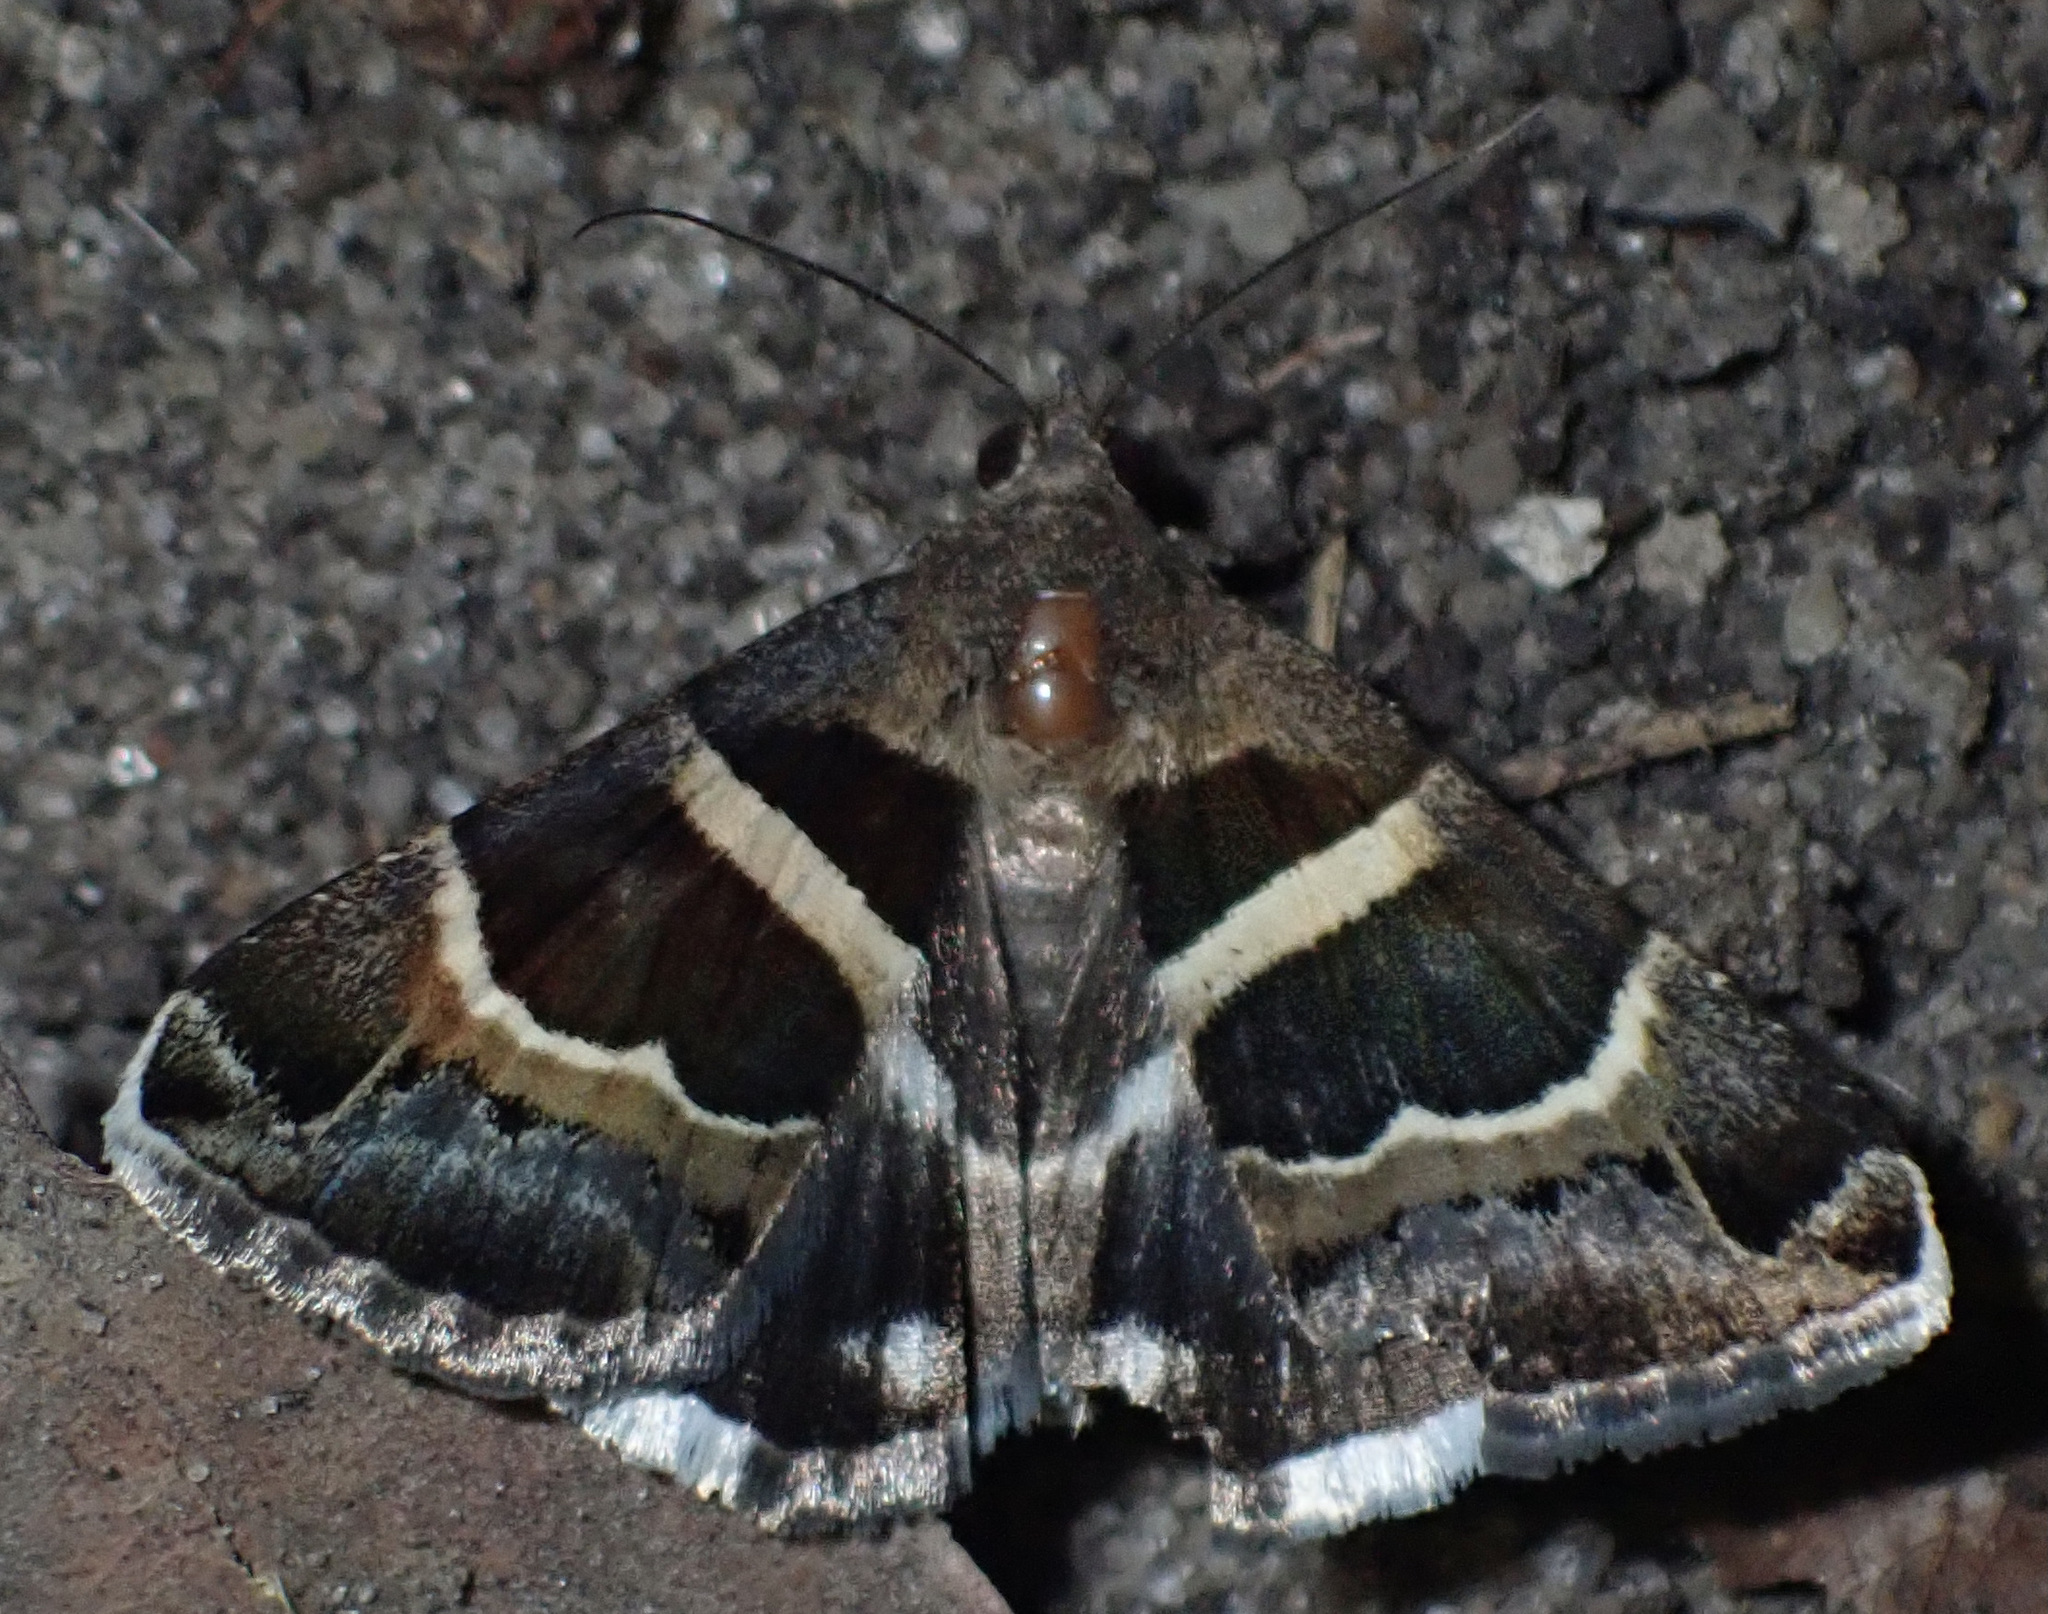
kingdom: Animalia
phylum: Arthropoda
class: Insecta
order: Lepidoptera
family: Erebidae
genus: Grammodes
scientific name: Grammodes stolida
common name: Geometrician
